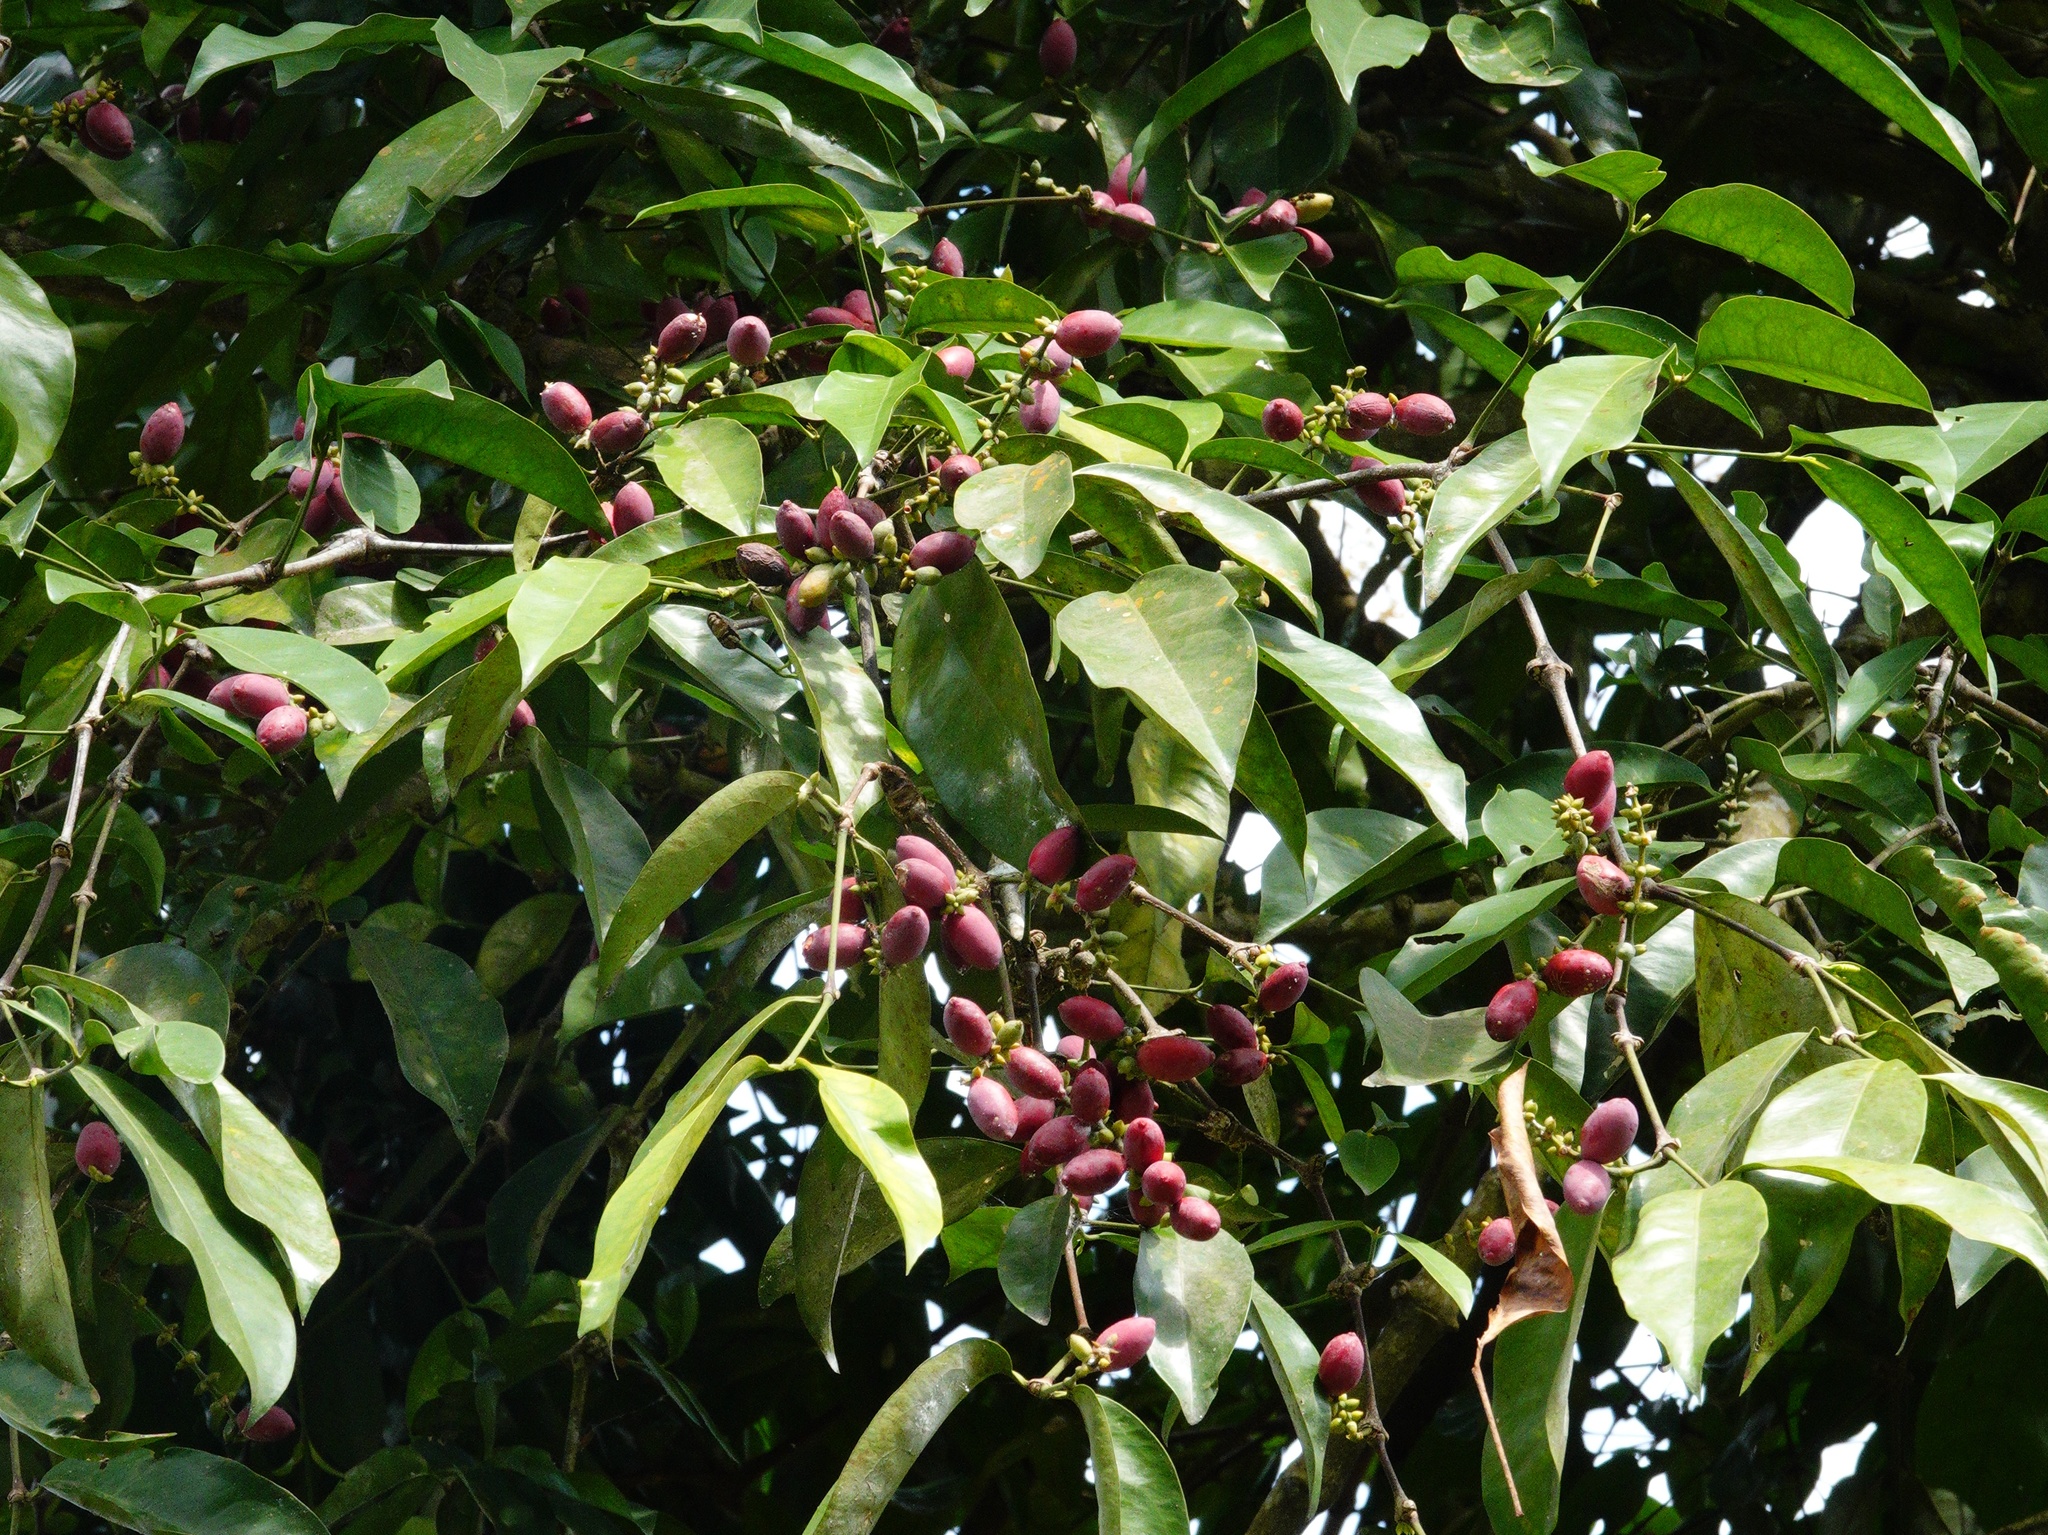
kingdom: Plantae
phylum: Tracheophyta
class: Gnetopsida
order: Gnetales
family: Gnetaceae
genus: Gnetum
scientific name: Gnetum gnemon
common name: Spanish joint-fir
